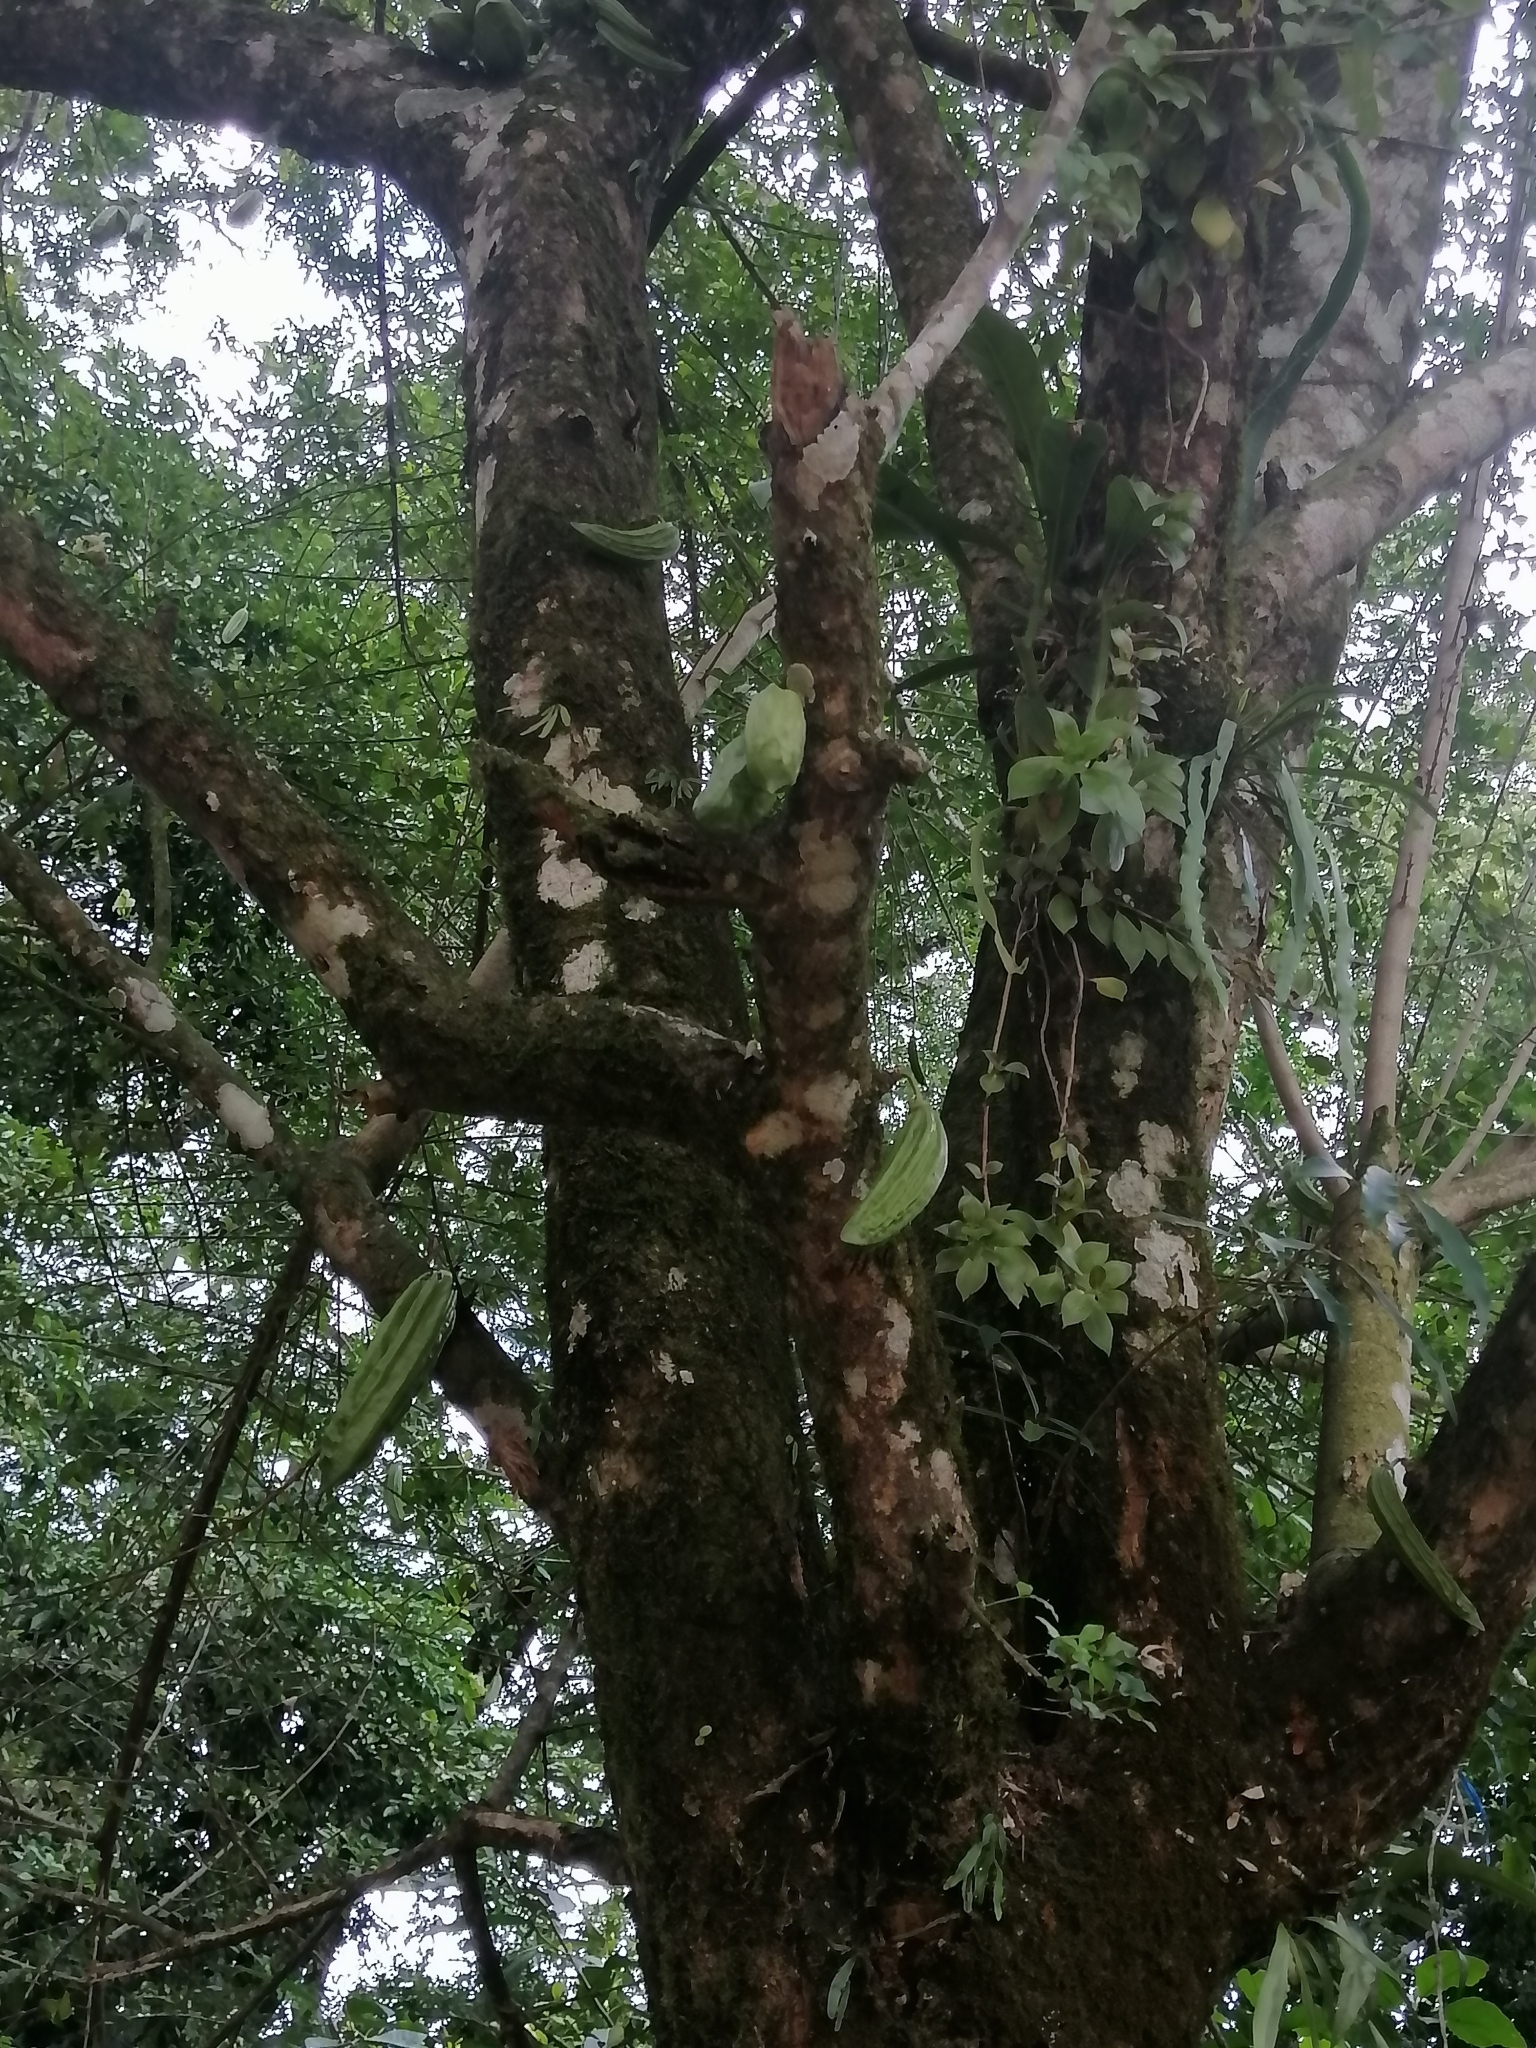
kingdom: Plantae
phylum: Tracheophyta
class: Magnoliopsida
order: Lamiales
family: Bignoniaceae
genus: Parmentiera
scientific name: Parmentiera aculeata
